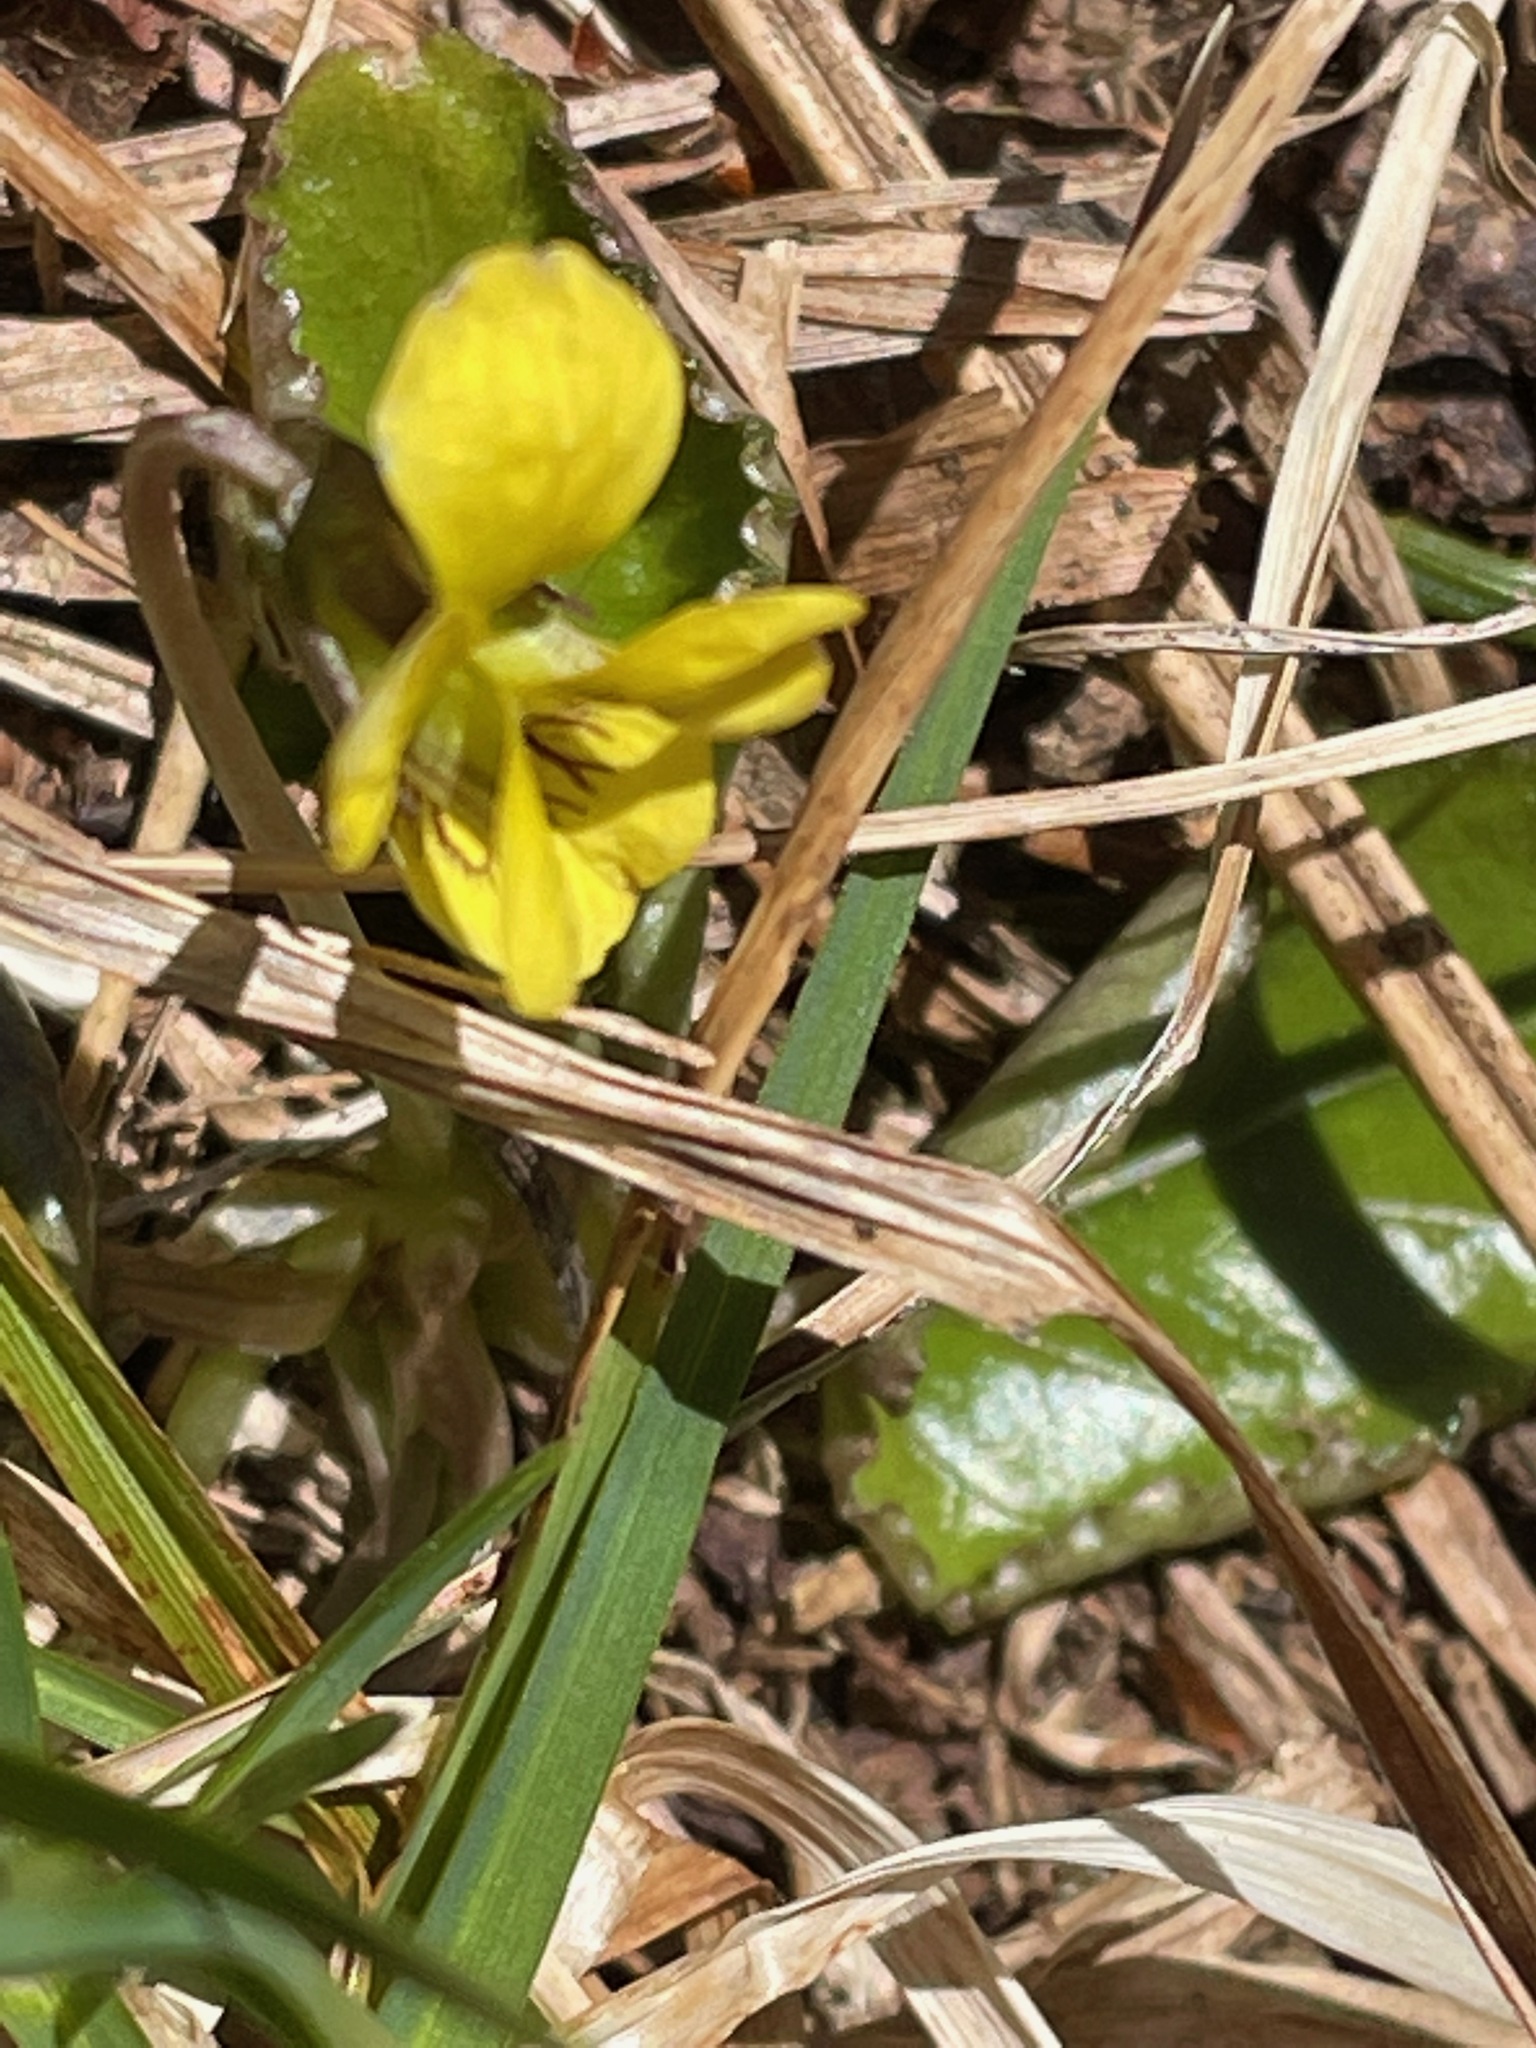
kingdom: Plantae
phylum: Tracheophyta
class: Magnoliopsida
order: Malpighiales
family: Violaceae
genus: Viola
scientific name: Viola rotundifolia
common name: Early yellow violet
